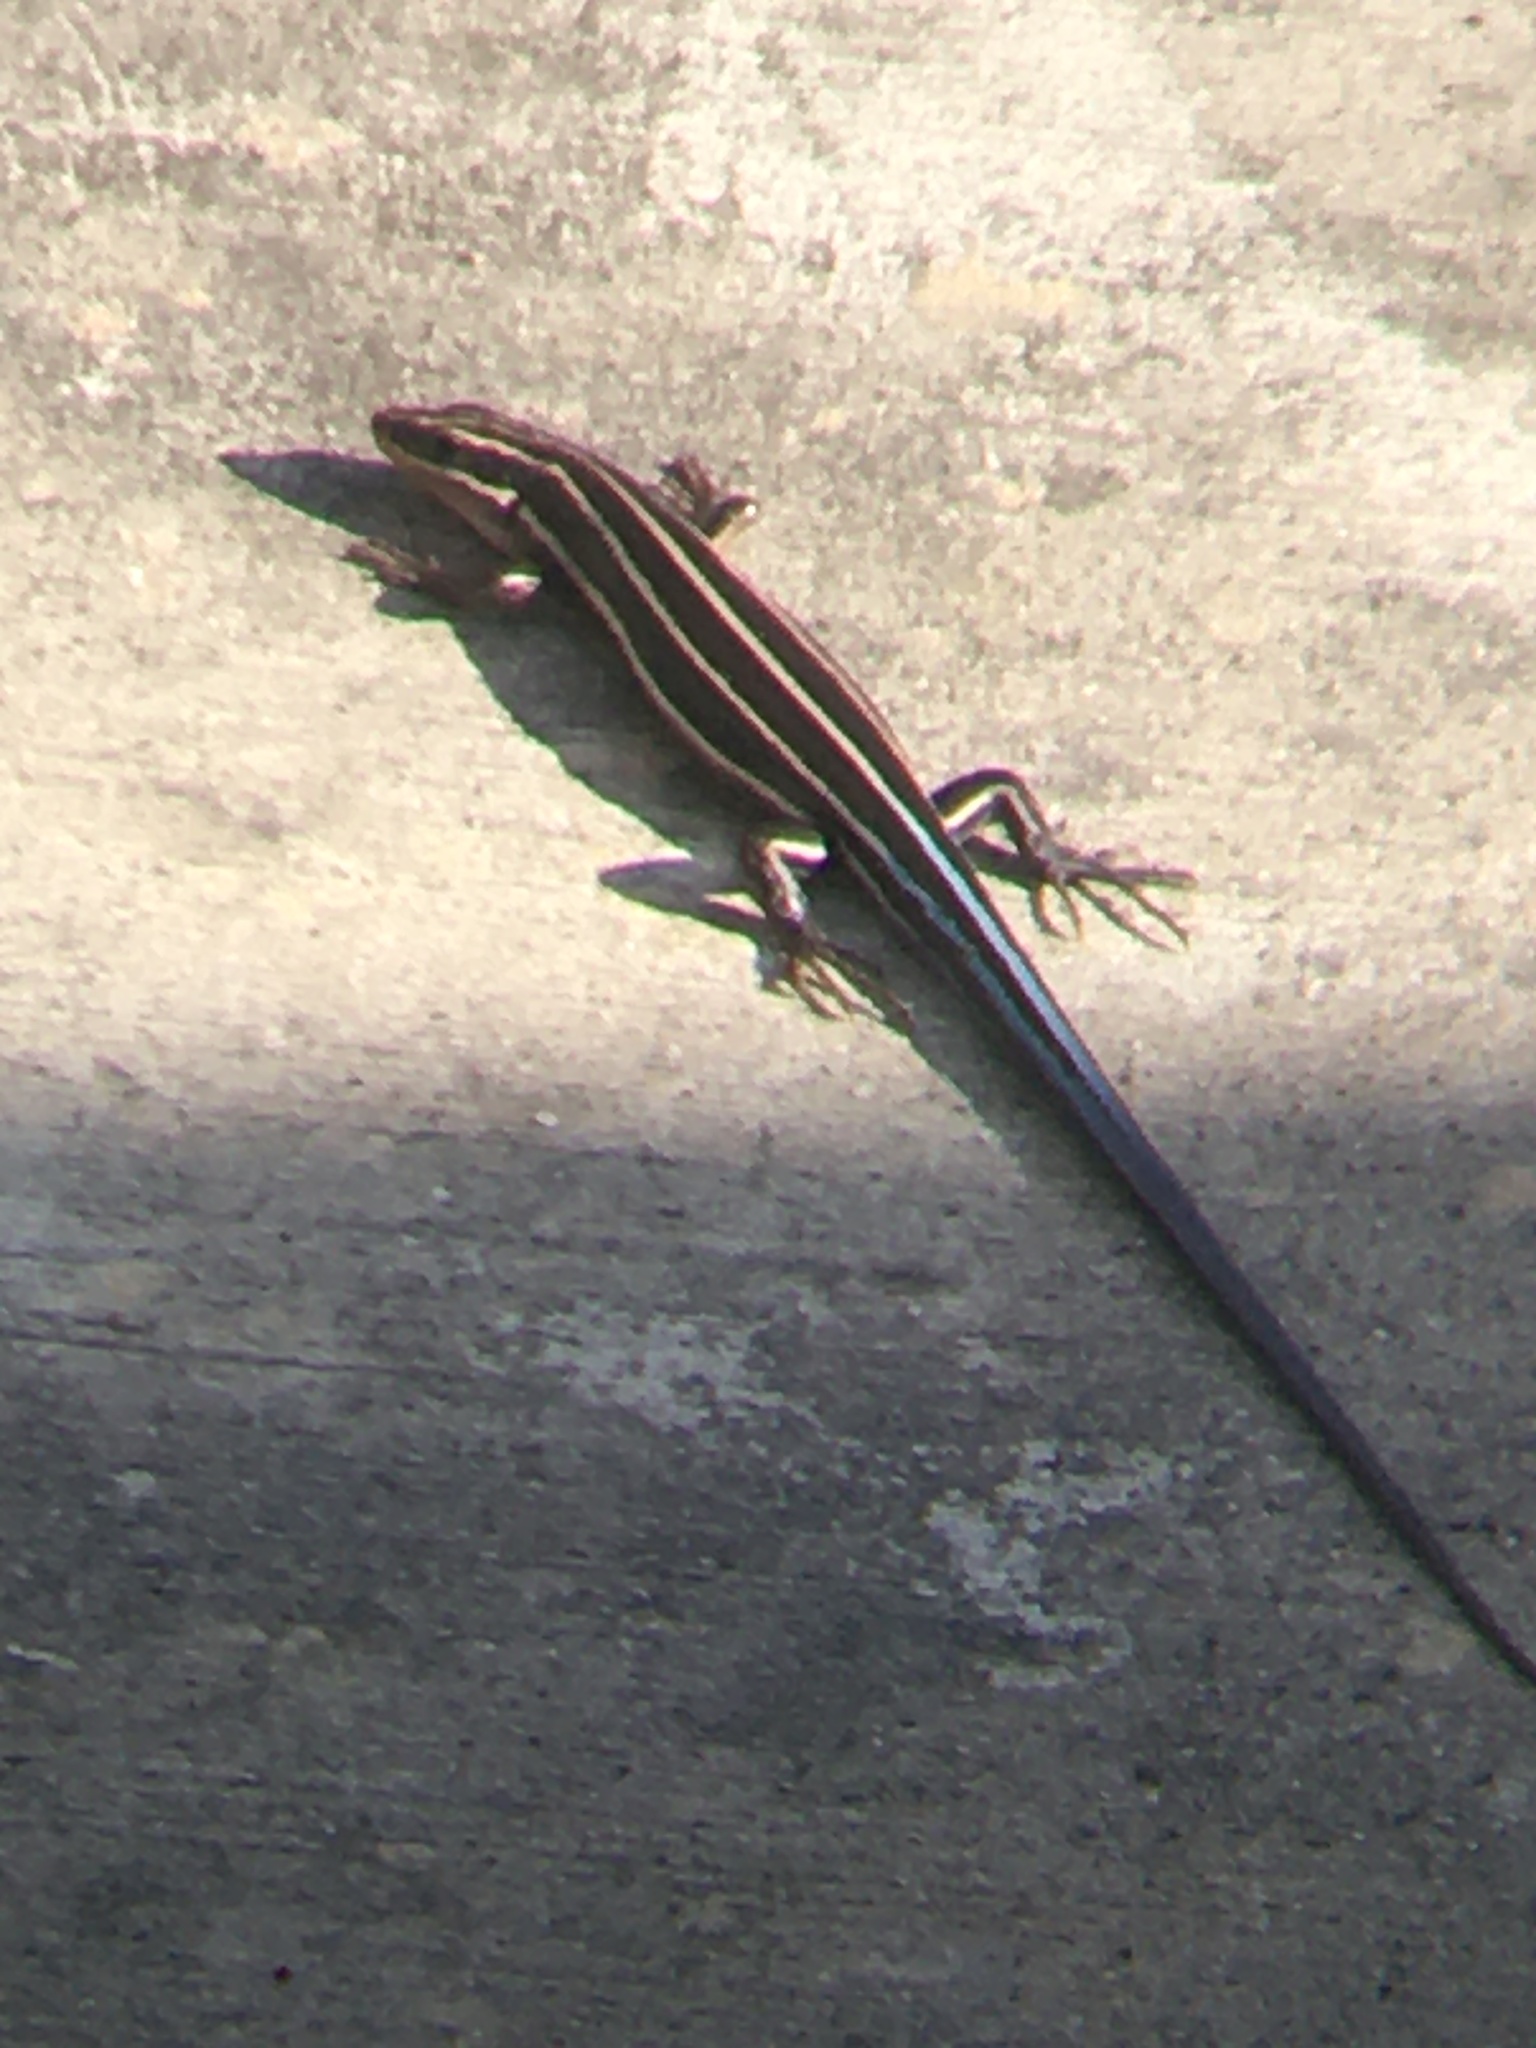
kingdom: Animalia
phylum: Chordata
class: Squamata
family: Scincidae
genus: Plestiodon
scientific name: Plestiodon fasciatus
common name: Five-lined skink
